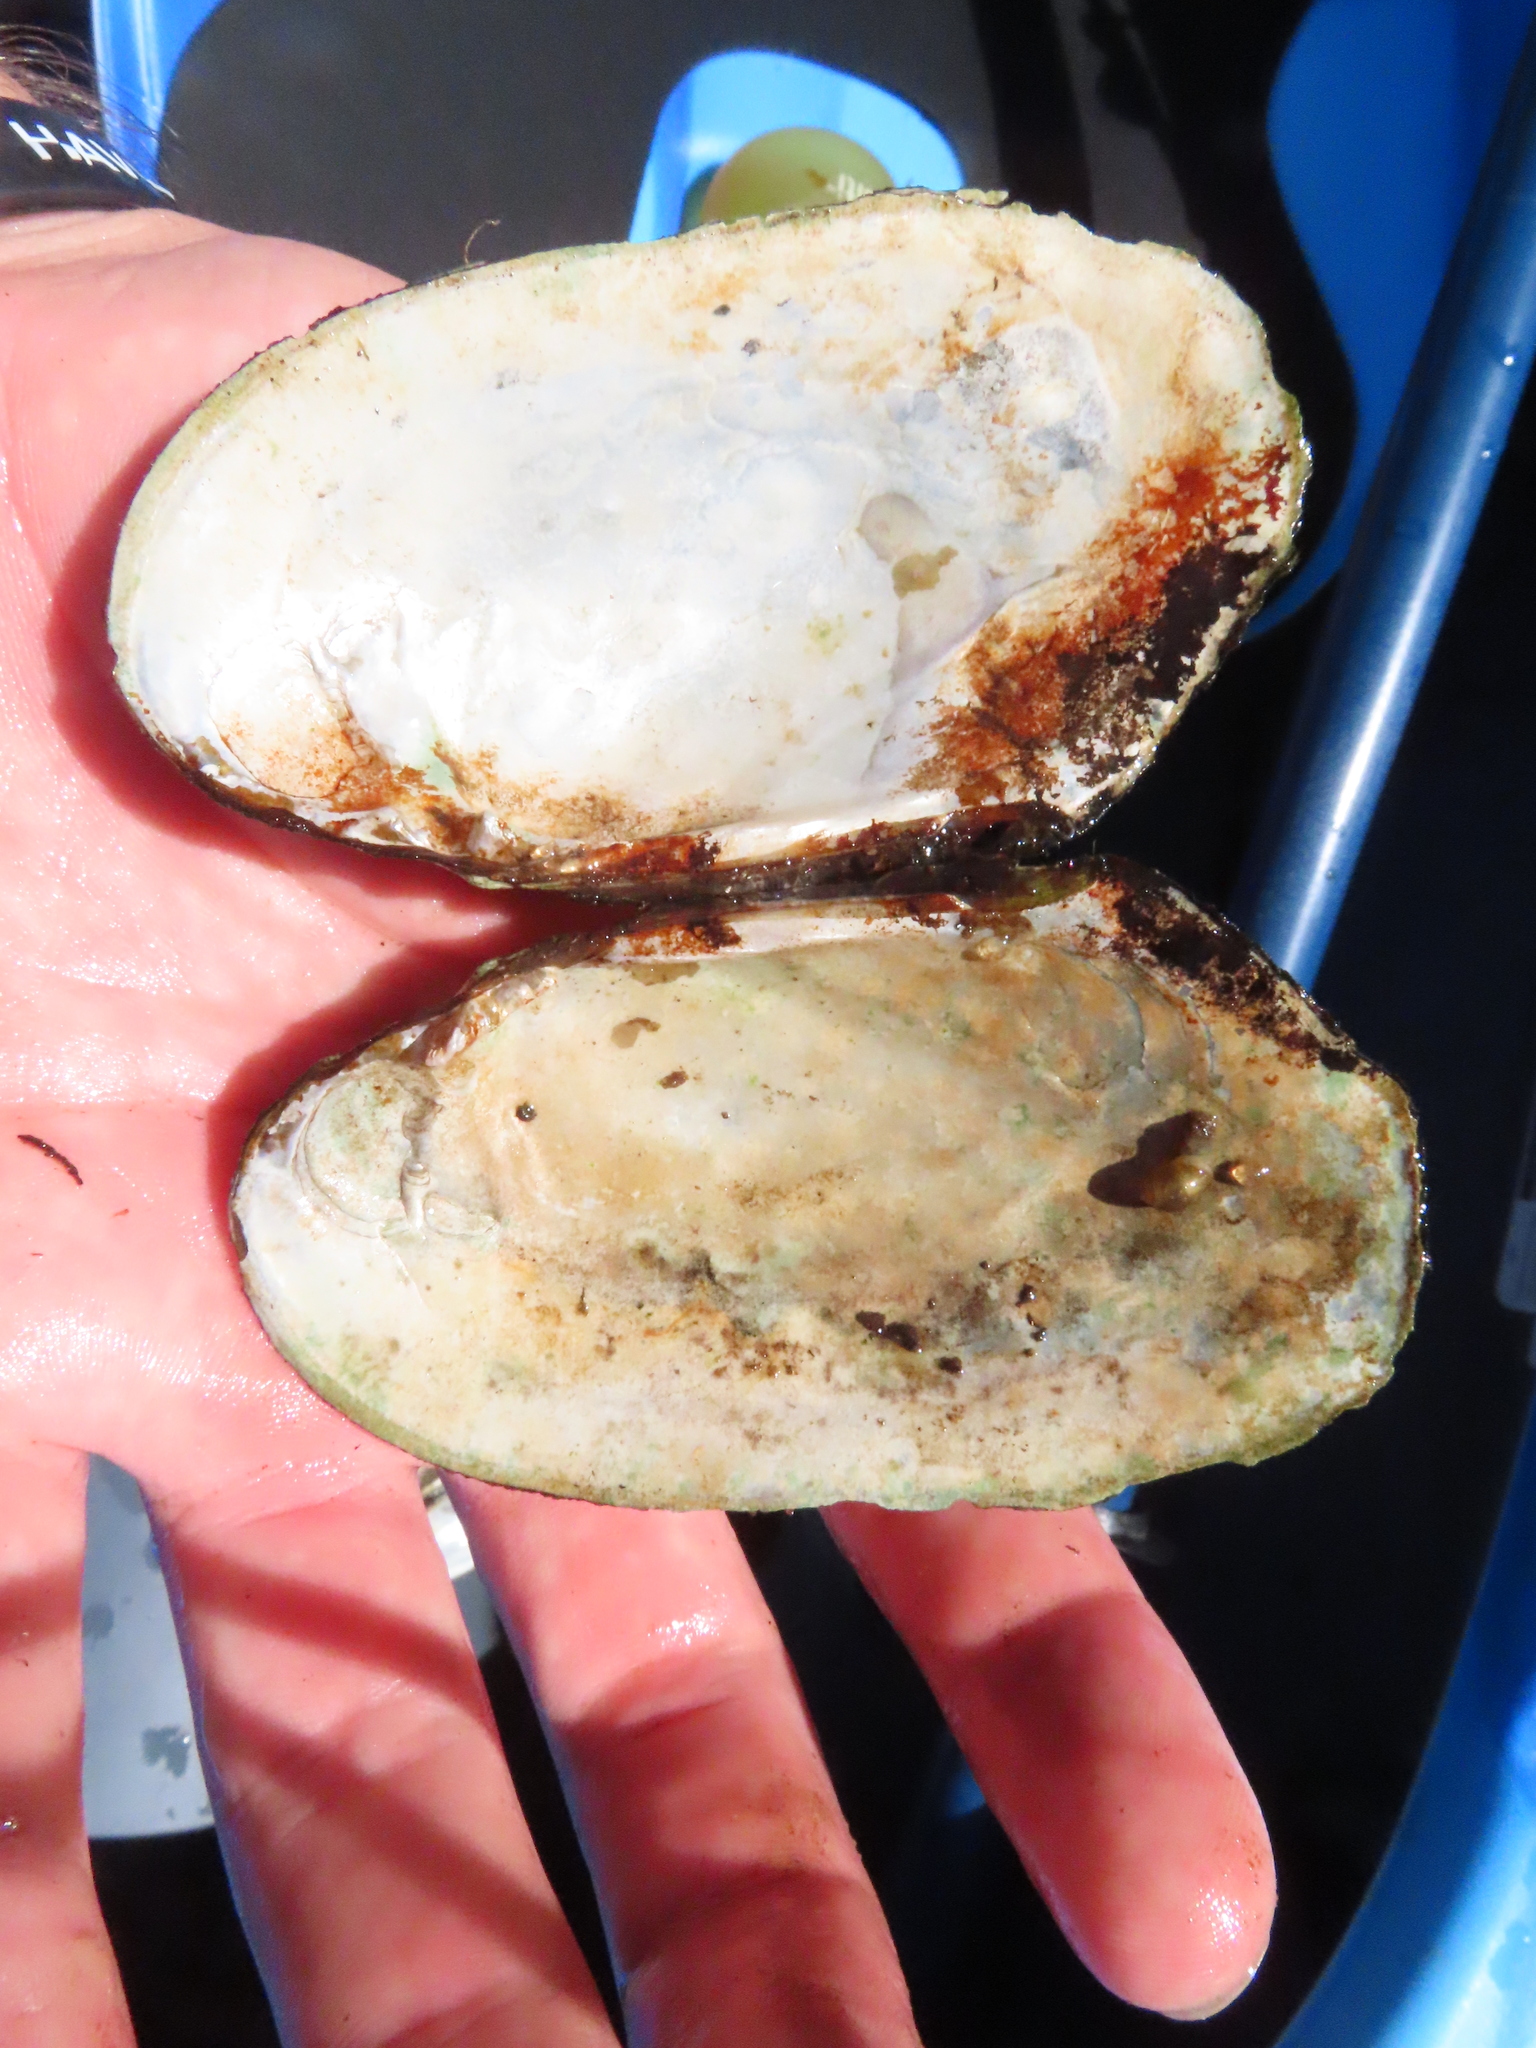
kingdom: Animalia
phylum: Mollusca
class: Bivalvia
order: Unionida
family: Unionidae
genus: Lasmigona
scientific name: Lasmigona costata
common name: Flutedshell
